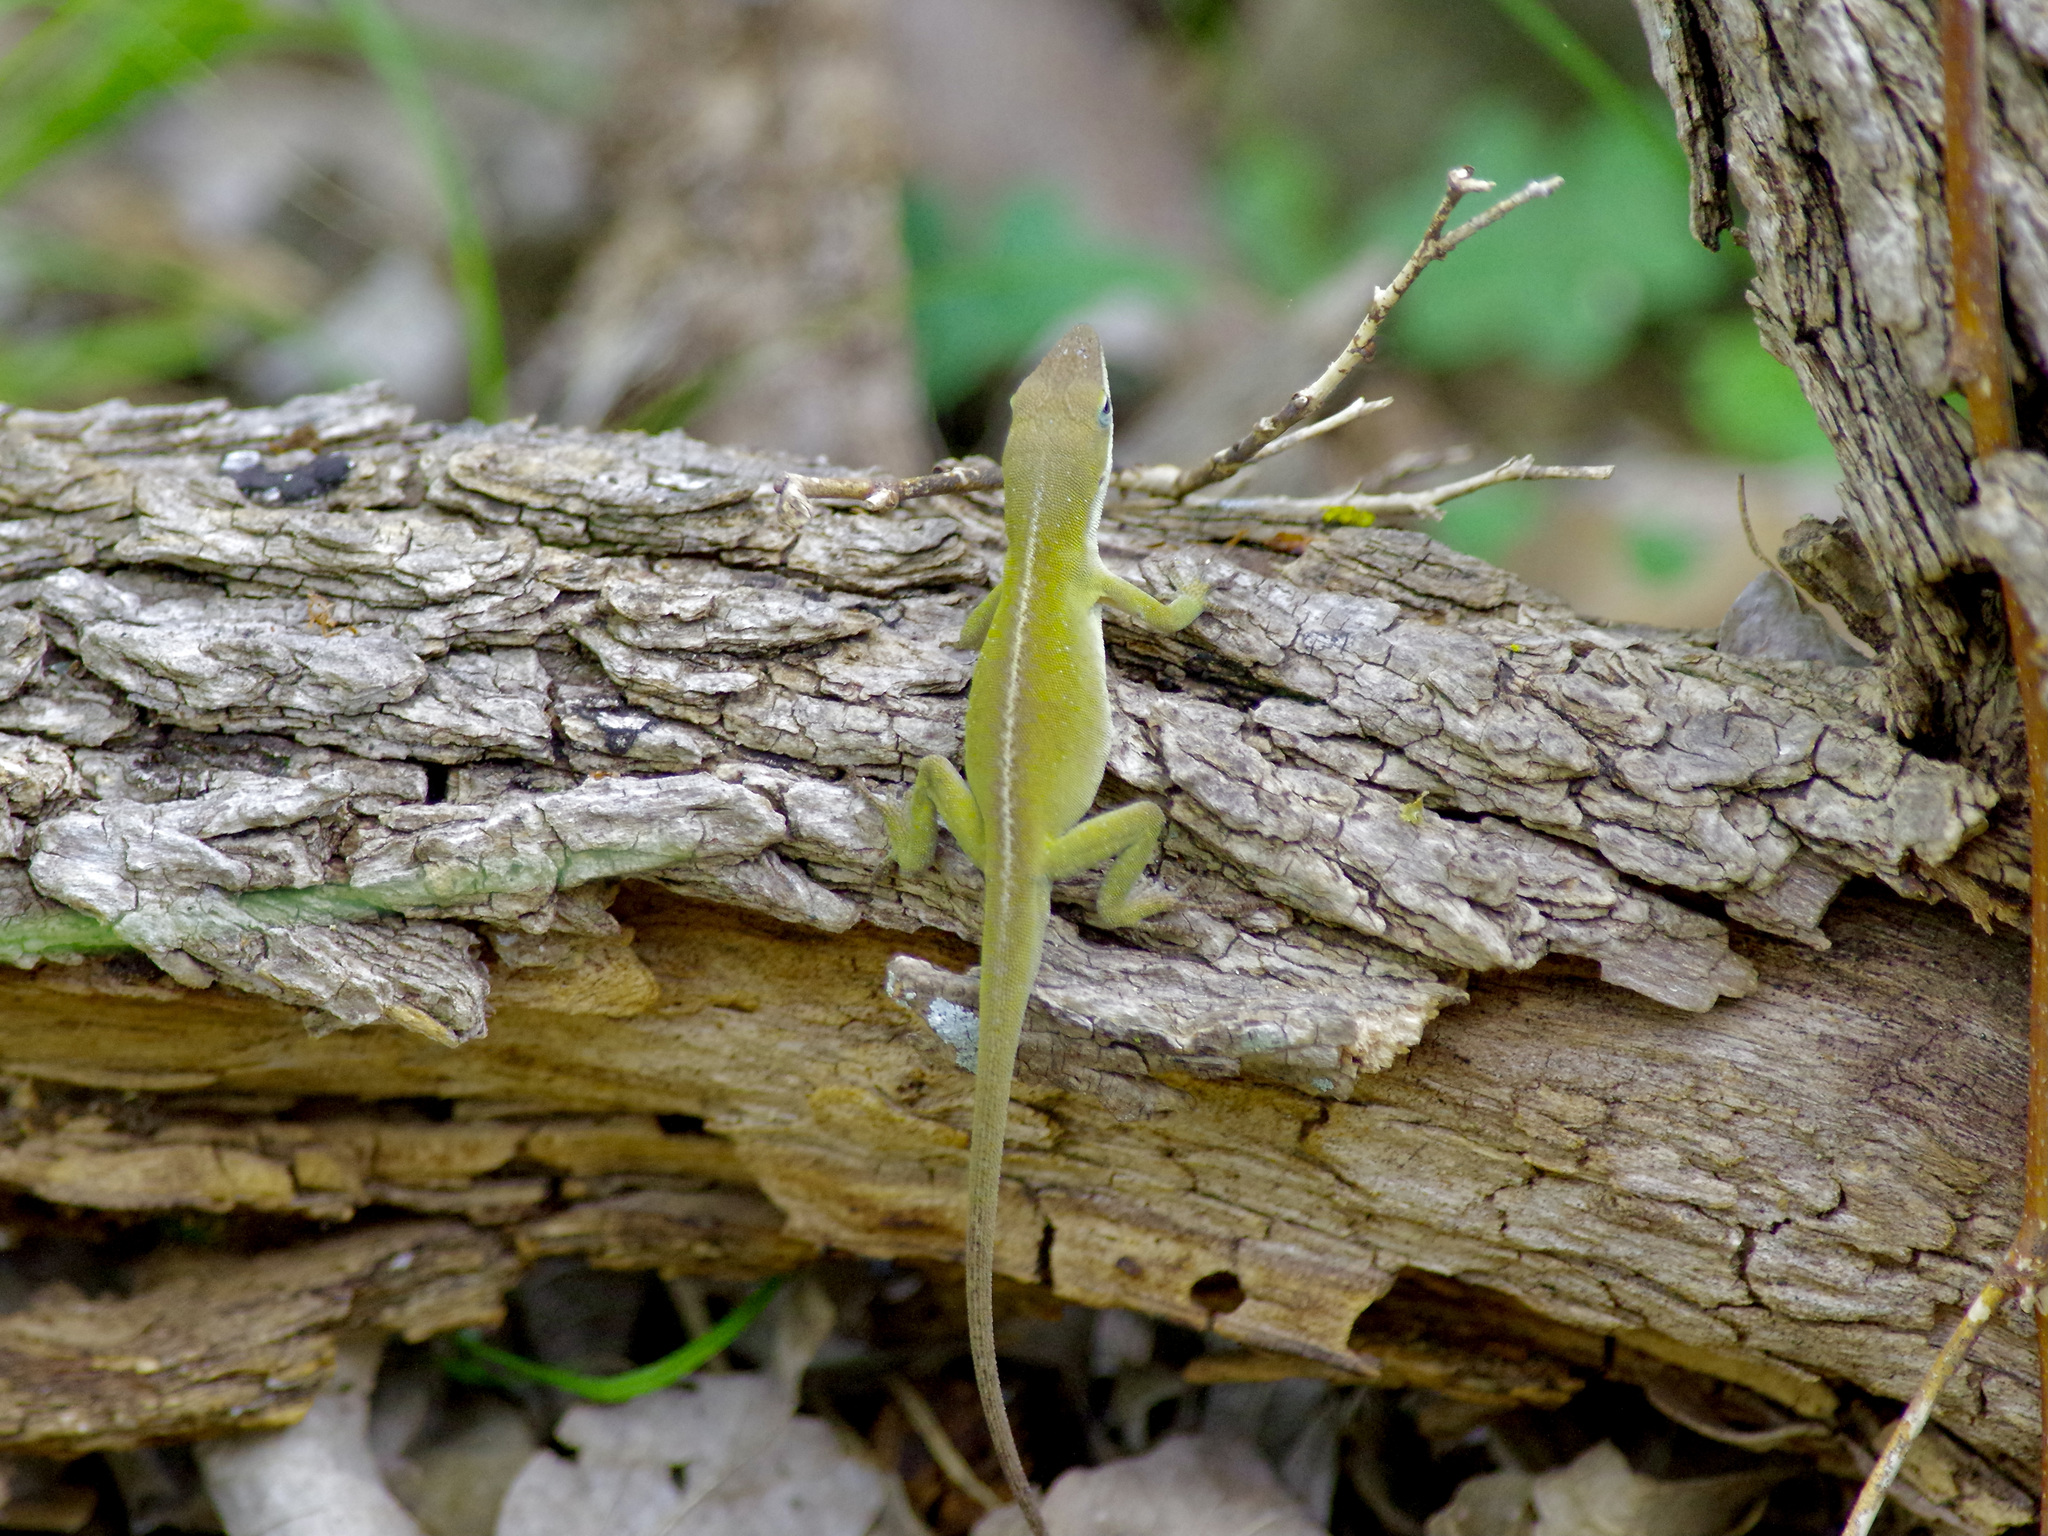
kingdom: Animalia
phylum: Chordata
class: Squamata
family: Dactyloidae
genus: Anolis
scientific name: Anolis carolinensis
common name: Green anole
